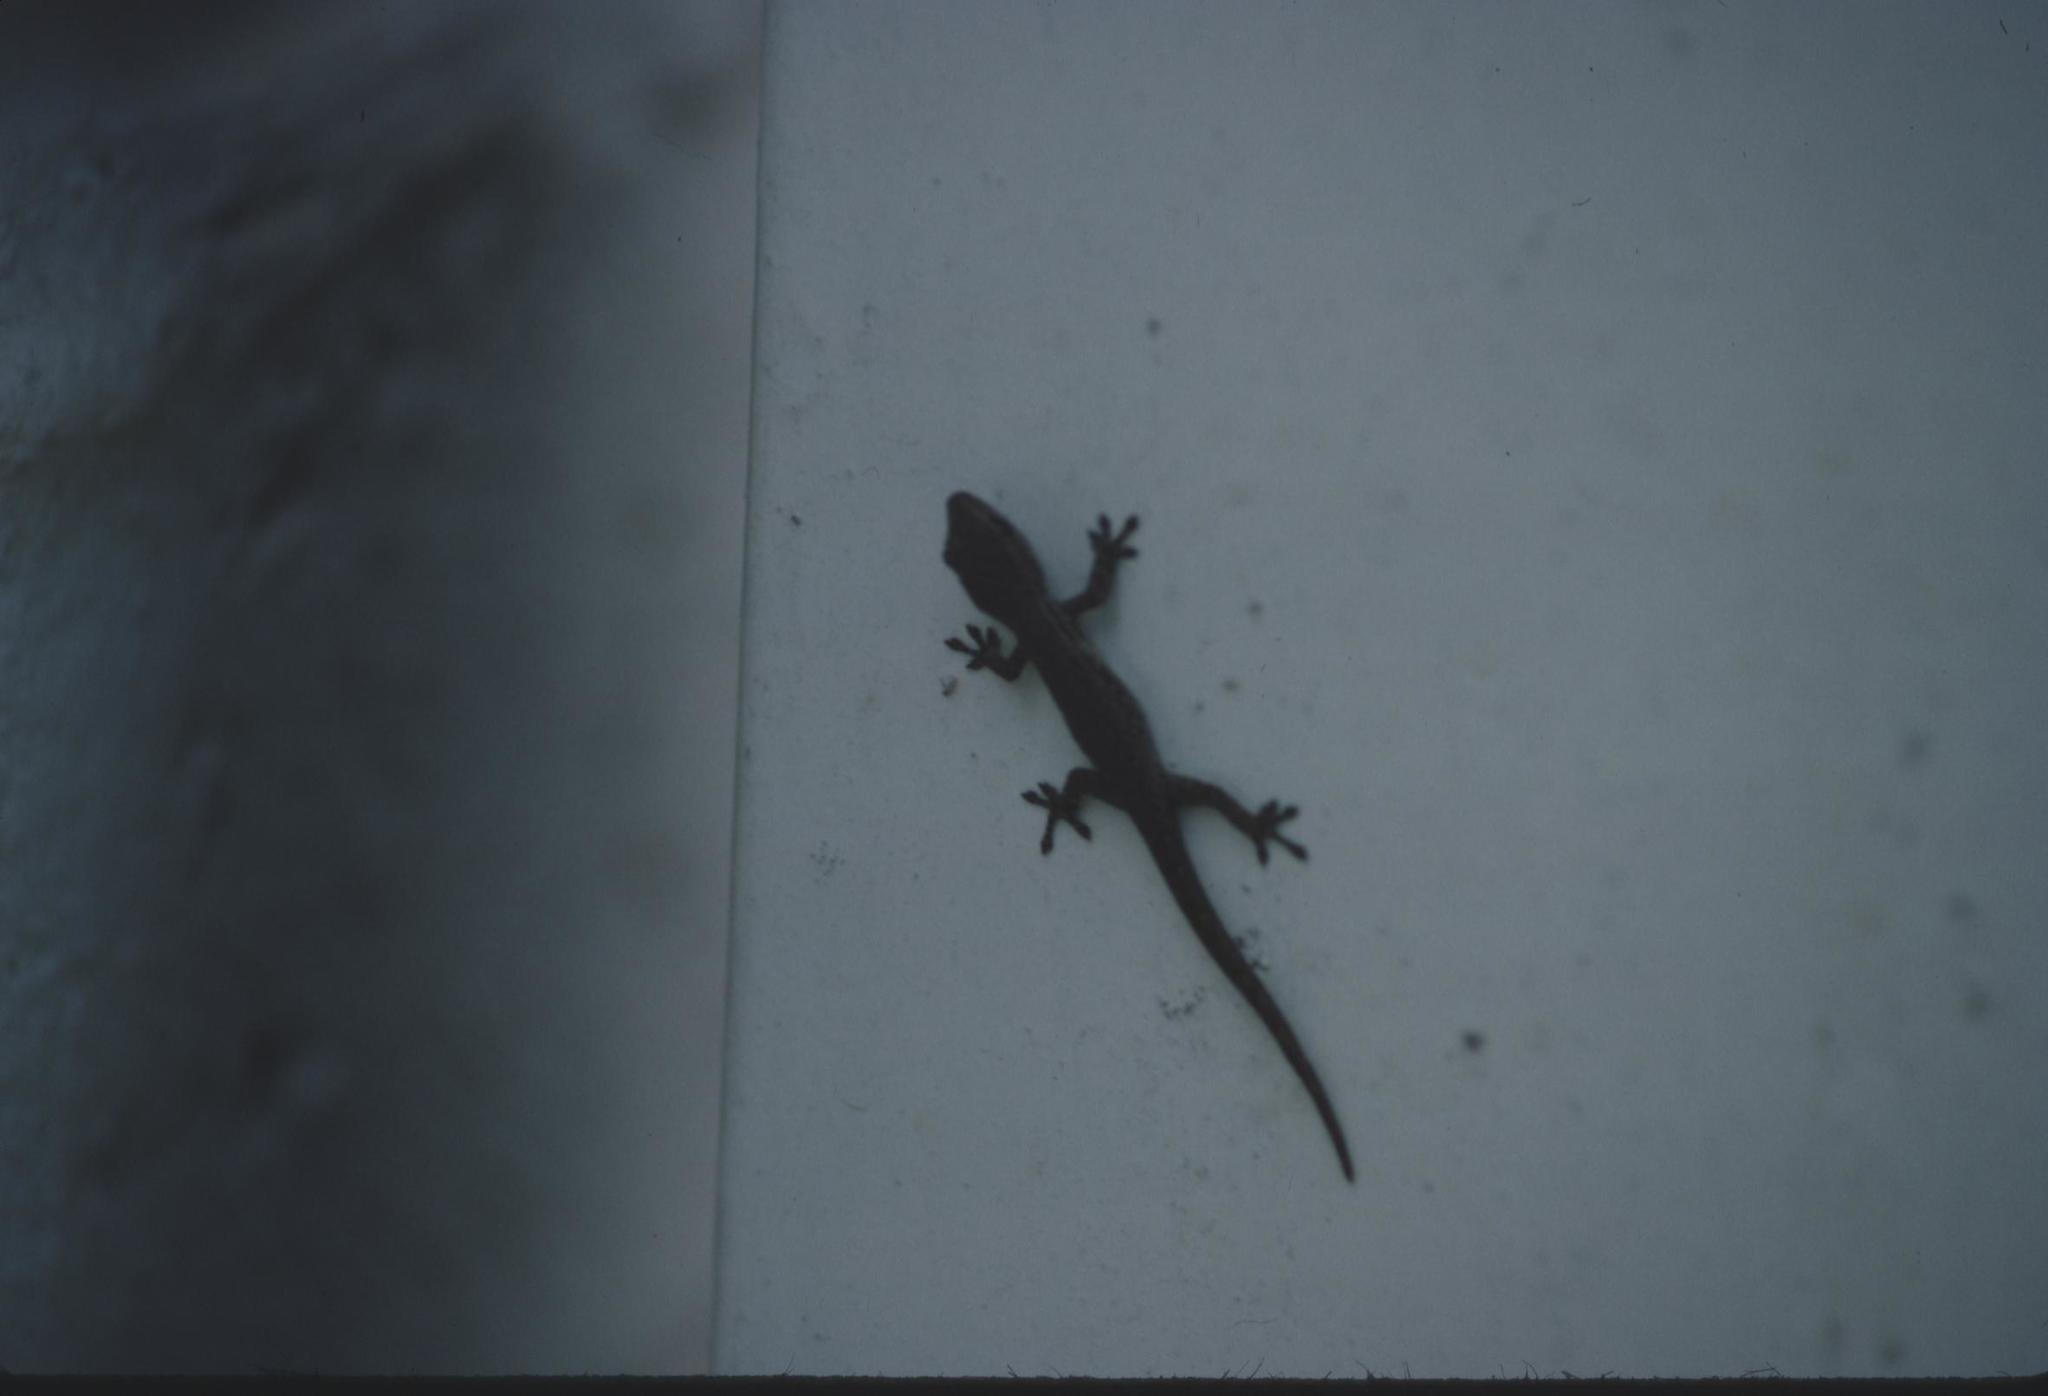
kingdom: Animalia
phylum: Chordata
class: Squamata
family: Gekkonidae
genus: Lygodactylus
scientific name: Lygodactylus capensis
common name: Cape dwarf gecko
